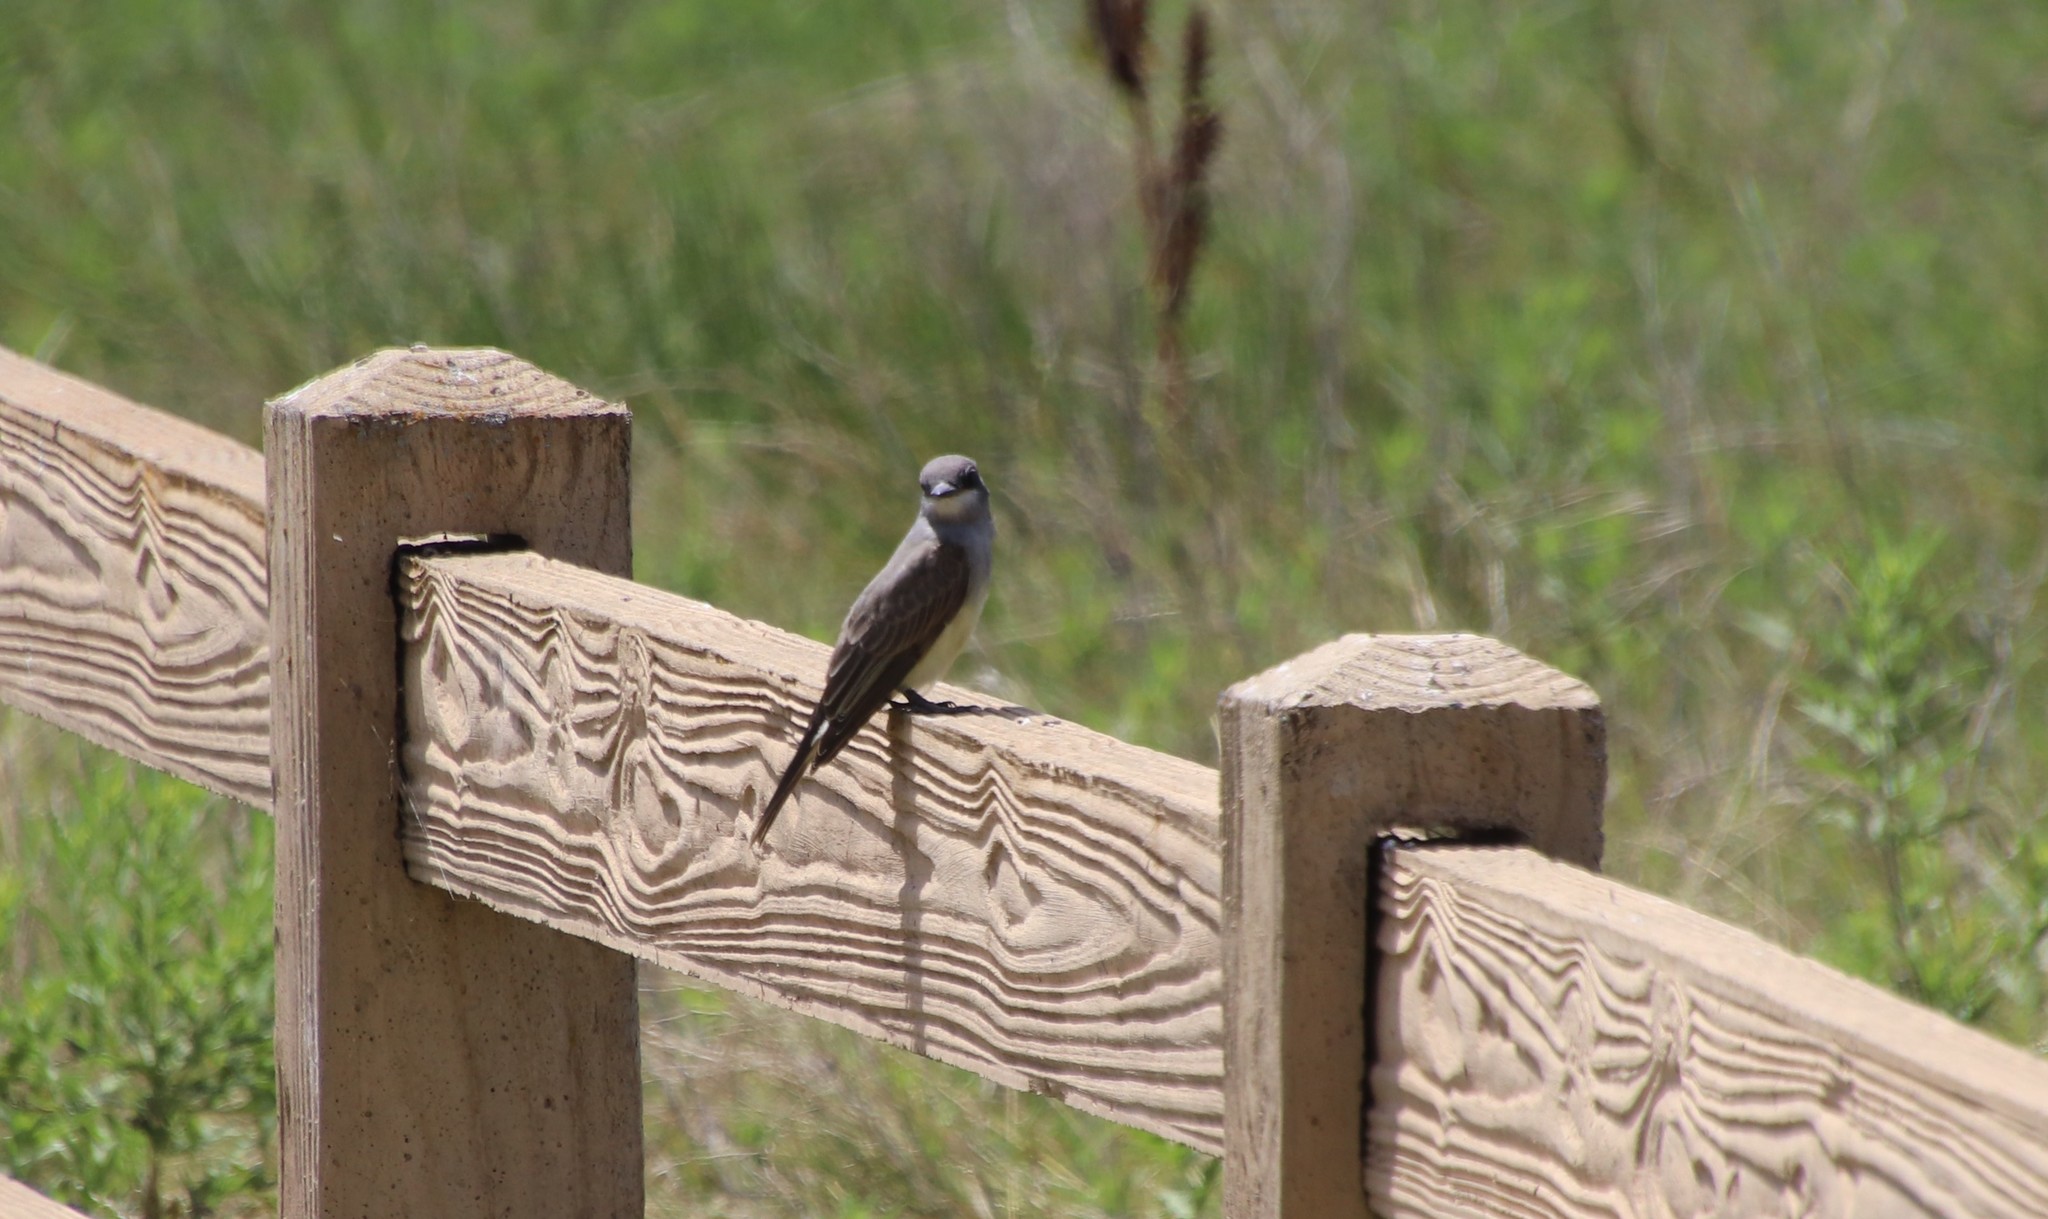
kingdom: Animalia
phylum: Chordata
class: Aves
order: Passeriformes
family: Tyrannidae
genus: Tyrannus
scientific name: Tyrannus vociferans
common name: Cassin's kingbird
